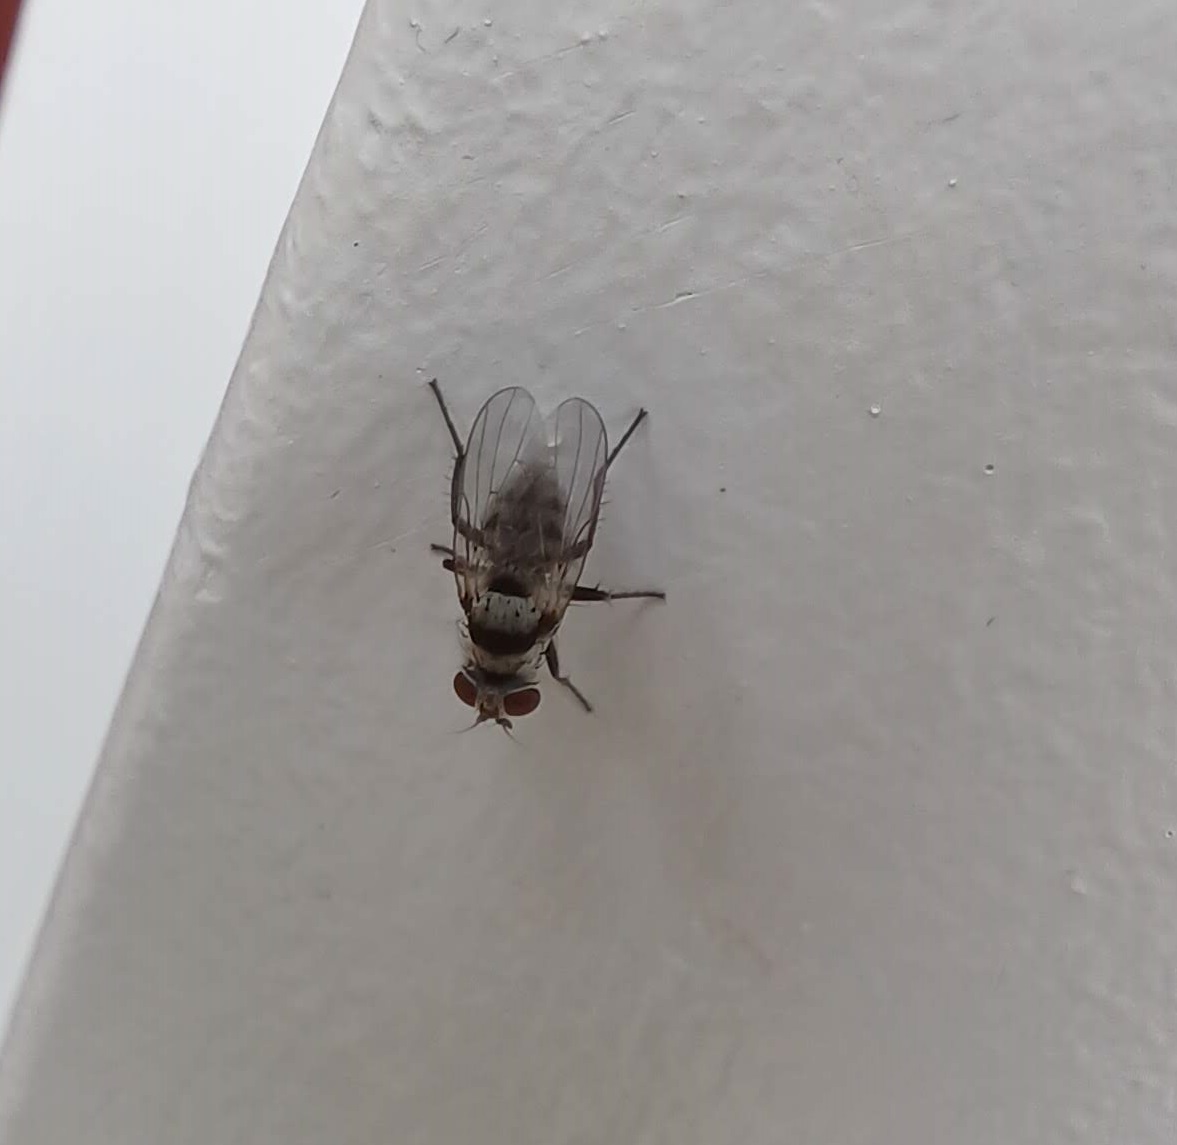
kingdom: Animalia
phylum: Arthropoda
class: Insecta
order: Diptera
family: Anthomyiidae
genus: Anthomyia
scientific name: Anthomyia illocata
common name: Fly
